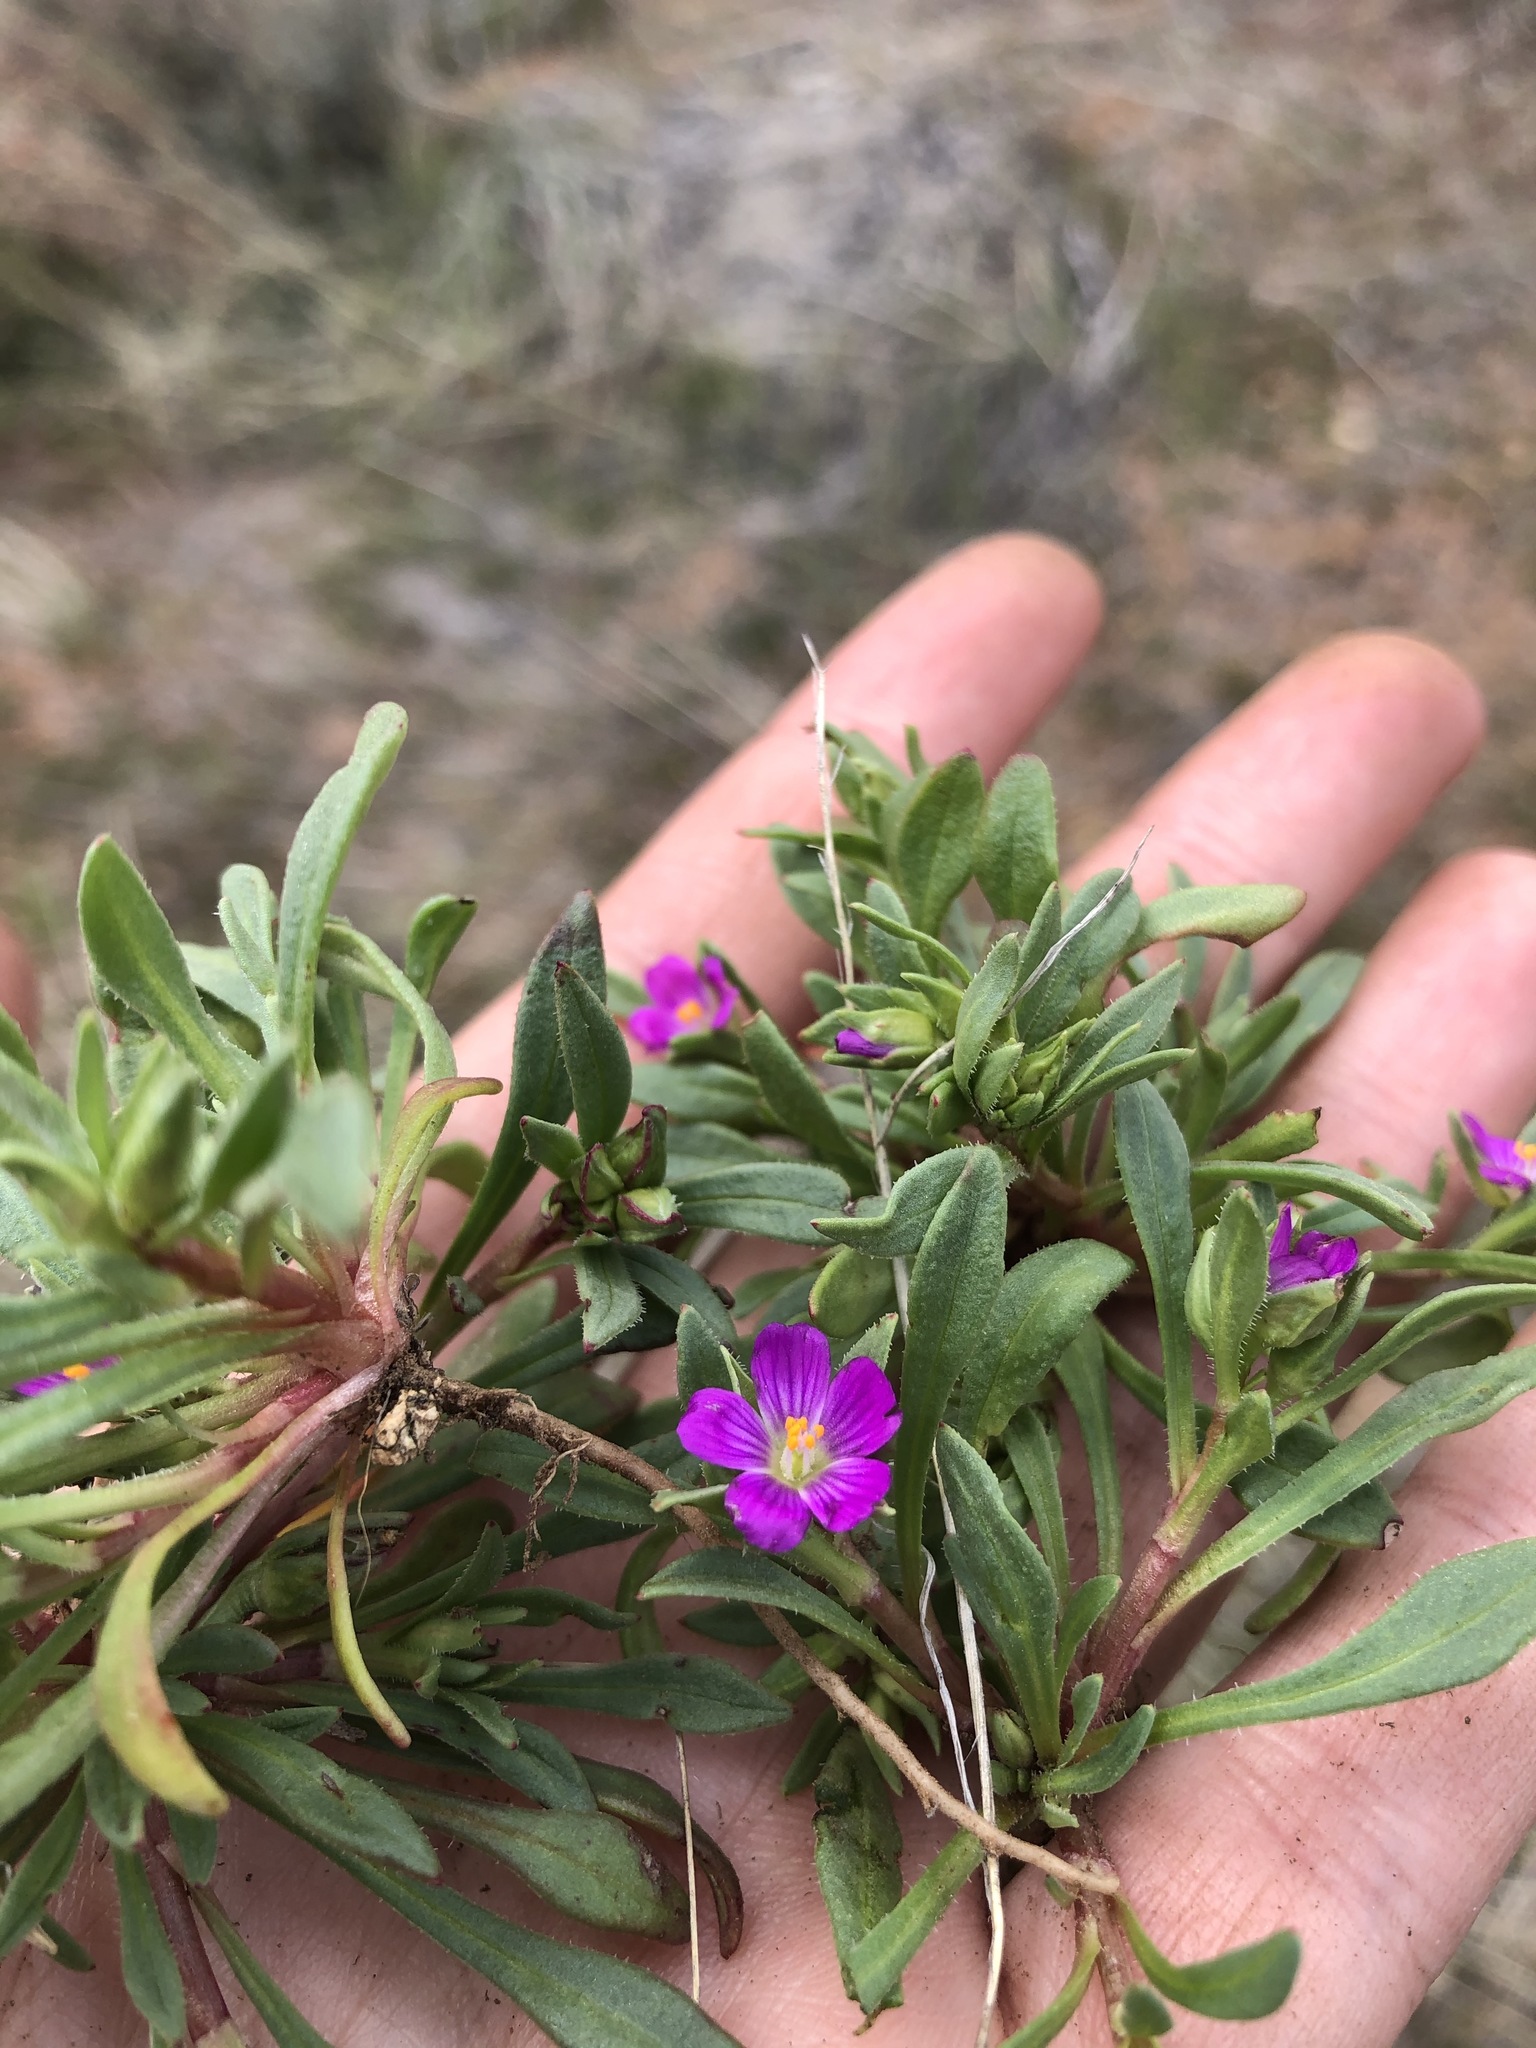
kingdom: Plantae
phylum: Tracheophyta
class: Magnoliopsida
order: Caryophyllales
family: Montiaceae
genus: Calandrinia
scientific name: Calandrinia menziesii
